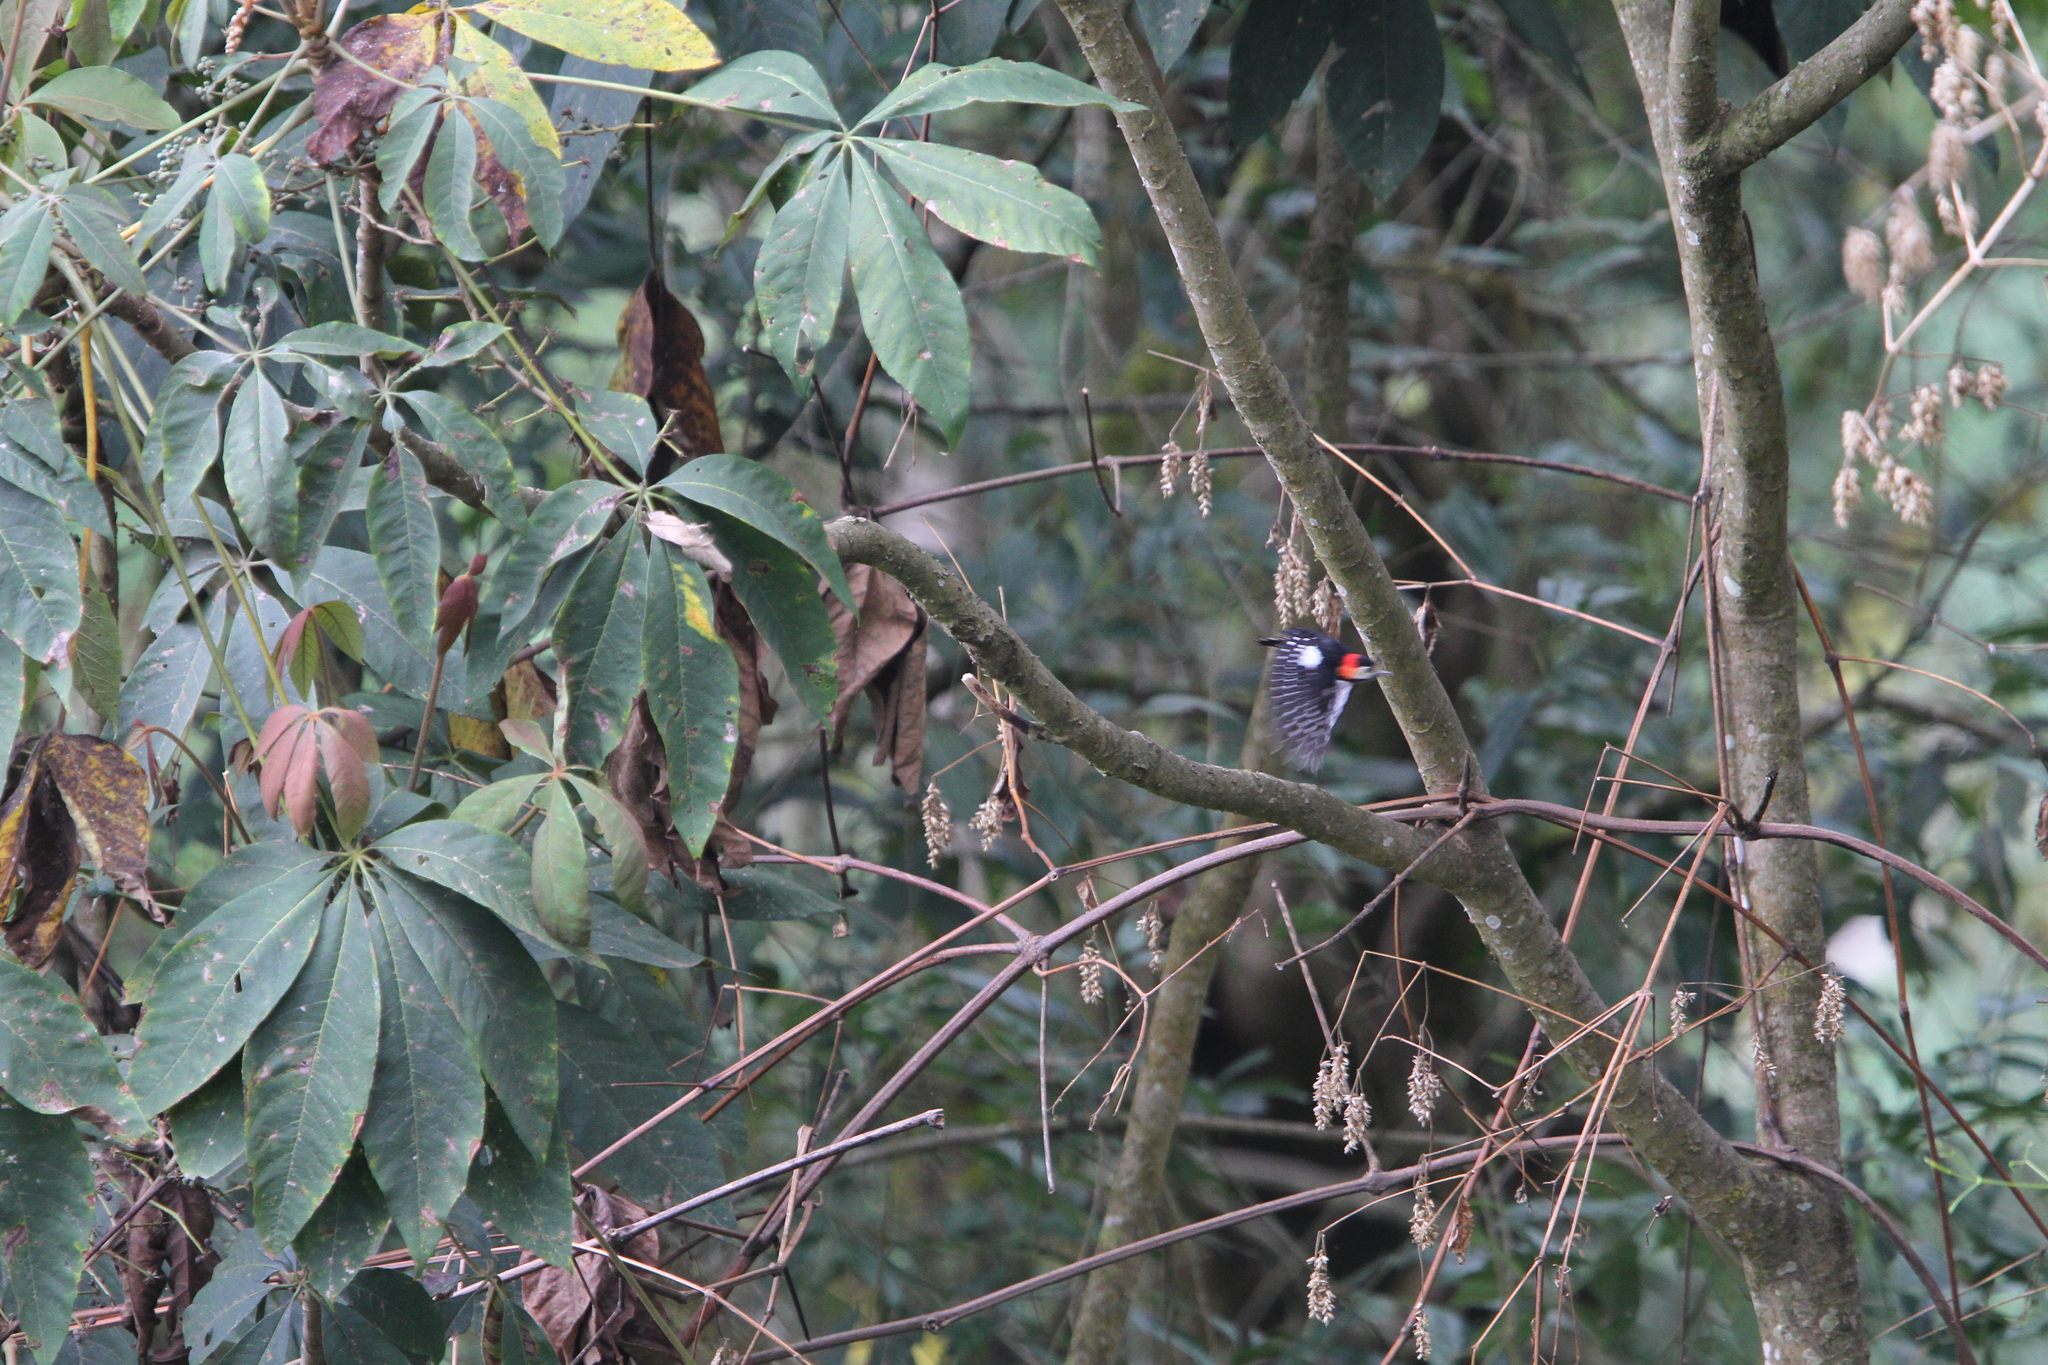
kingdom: Animalia
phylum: Chordata
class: Aves
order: Piciformes
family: Picidae
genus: Dryobates
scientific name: Dryobates cathpharius
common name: Crimson-breasted woodpecker
